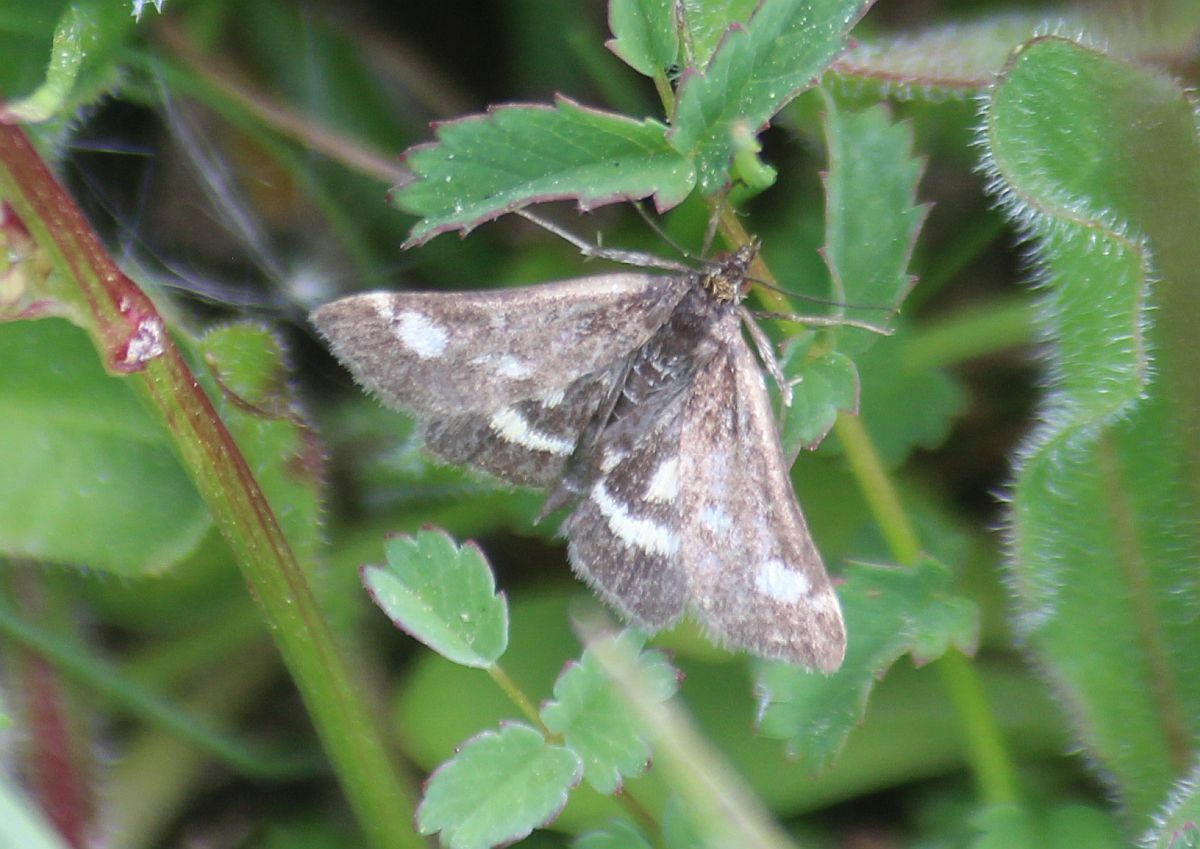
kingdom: Animalia
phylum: Arthropoda
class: Insecta
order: Lepidoptera
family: Crambidae
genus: Pyrausta
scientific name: Pyrausta purpuralis
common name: Common purple & gold
